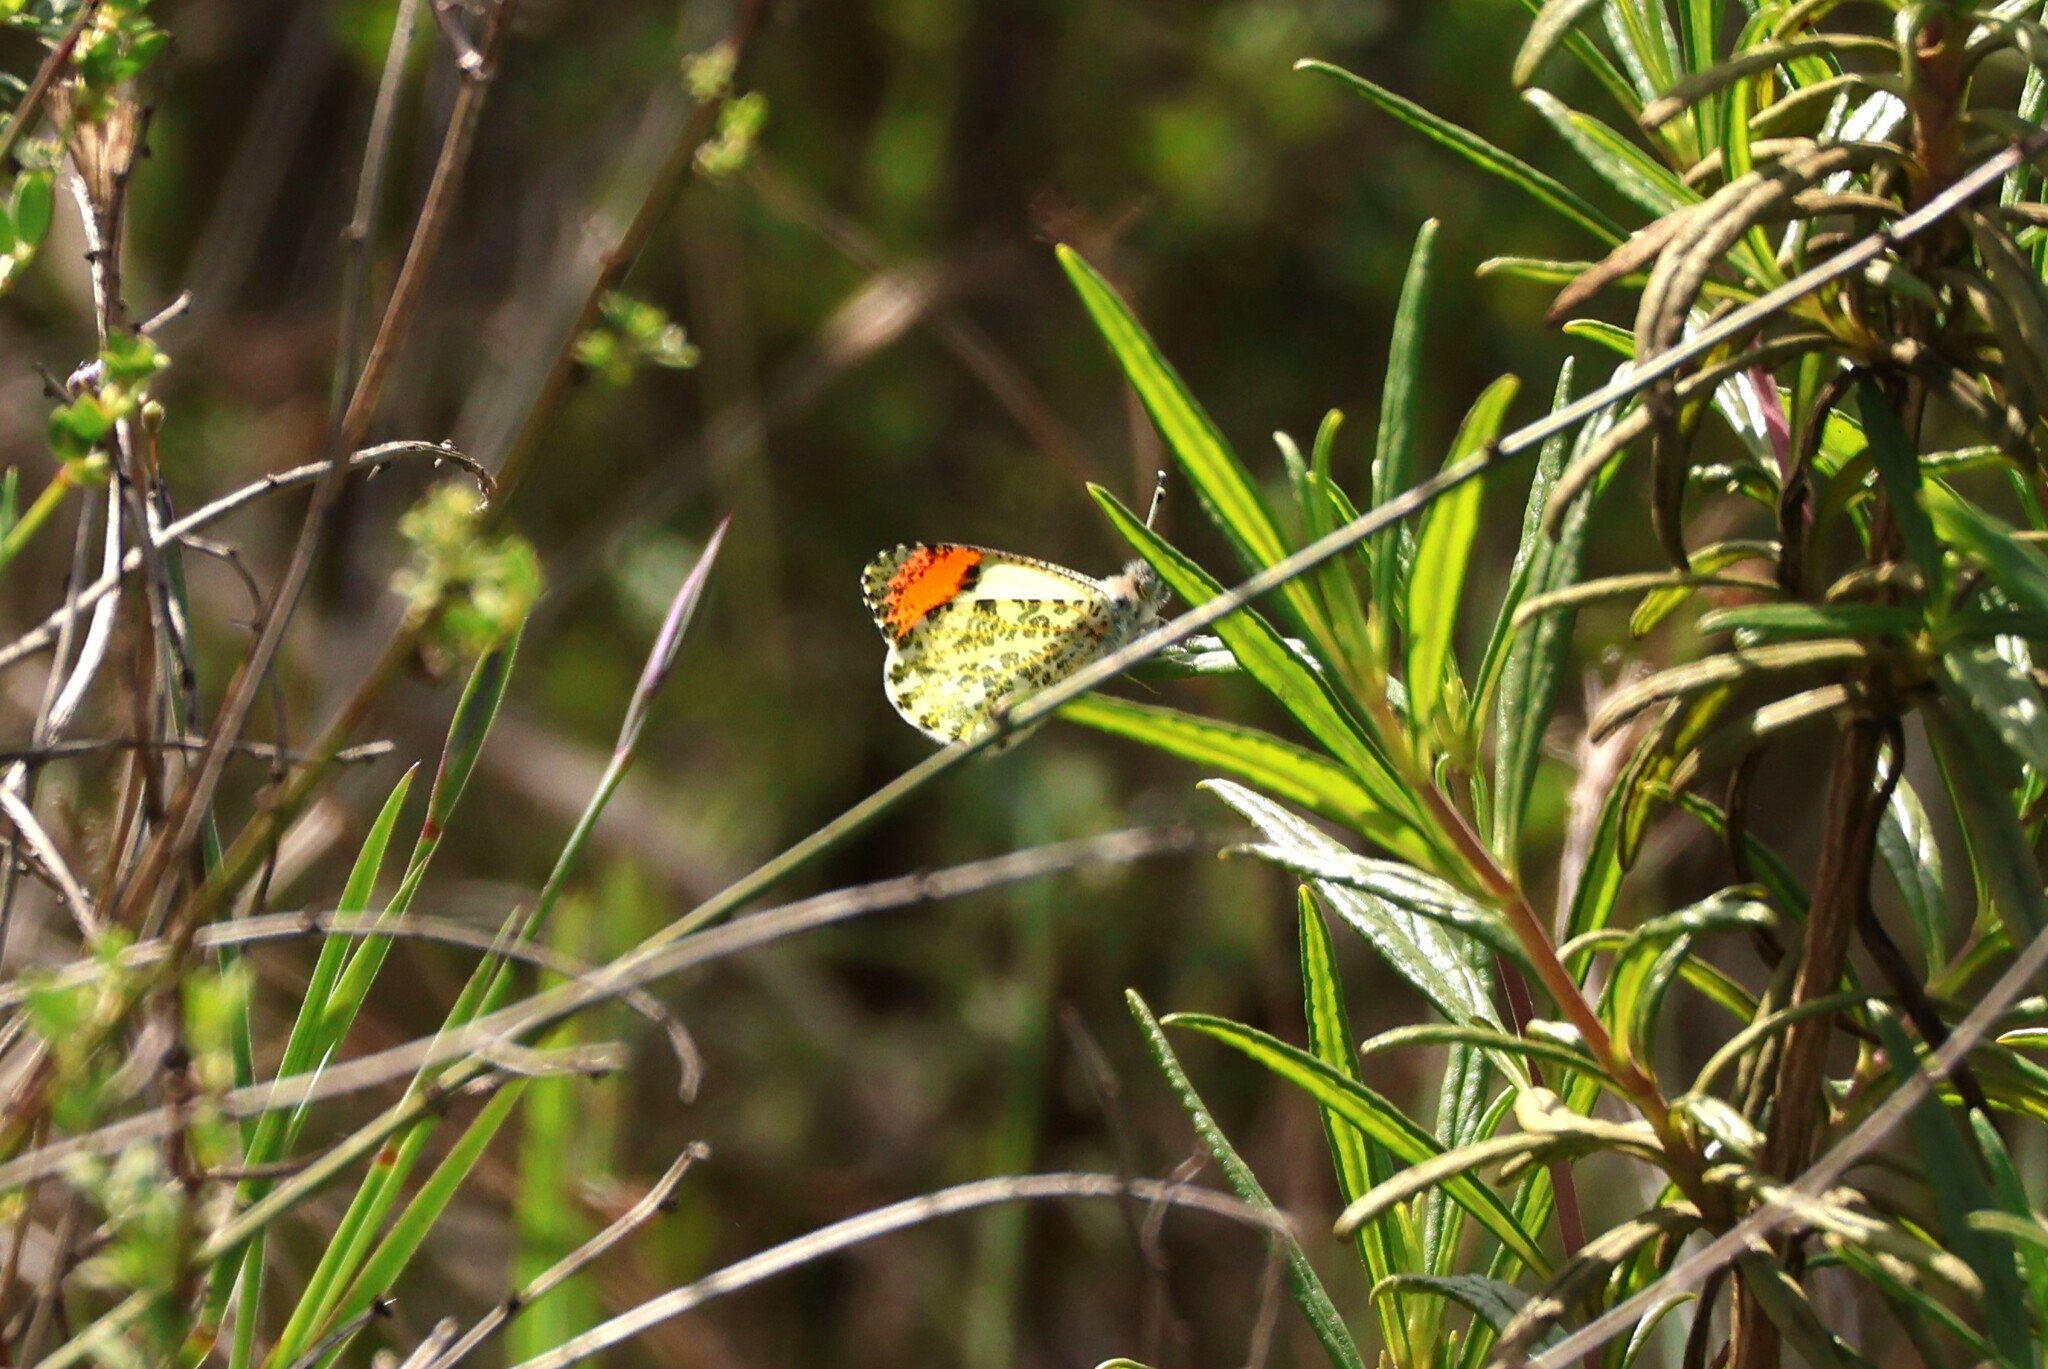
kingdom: Animalia
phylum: Arthropoda
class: Insecta
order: Lepidoptera
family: Pieridae
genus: Anthocharis
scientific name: Anthocharis sara
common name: Sara's orangetip
